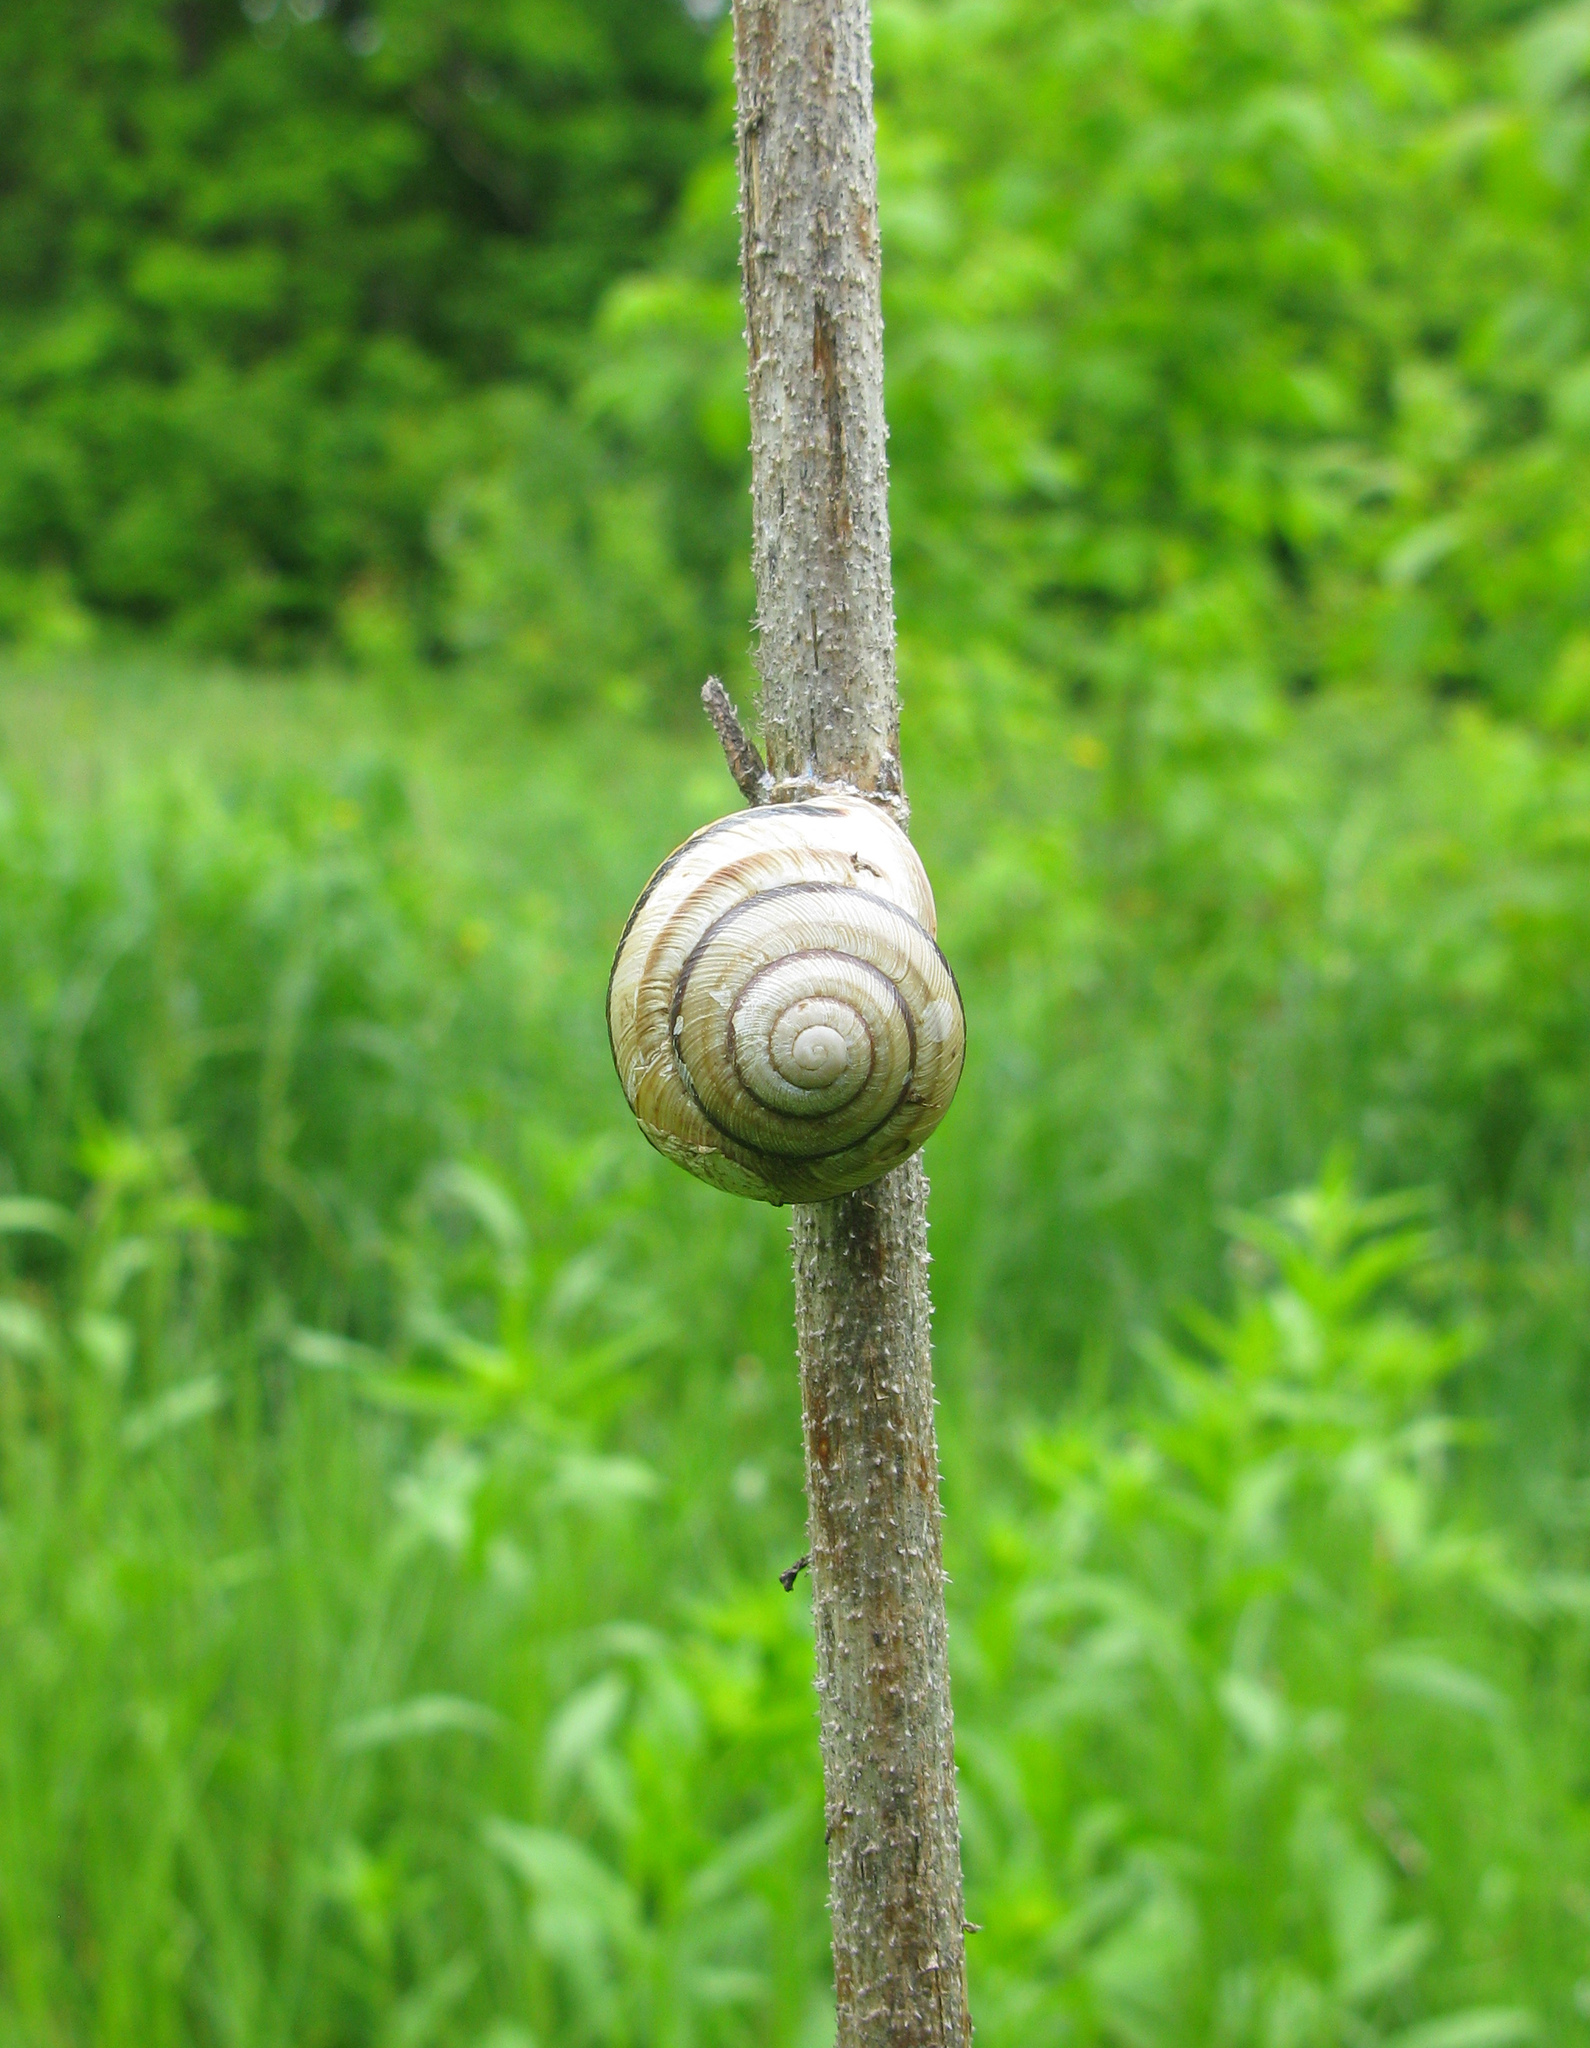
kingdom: Animalia
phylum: Mollusca
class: Gastropoda
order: Stylommatophora
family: Helicidae
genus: Caucasotachea
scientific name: Caucasotachea vindobonensis
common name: European helicid land snail
